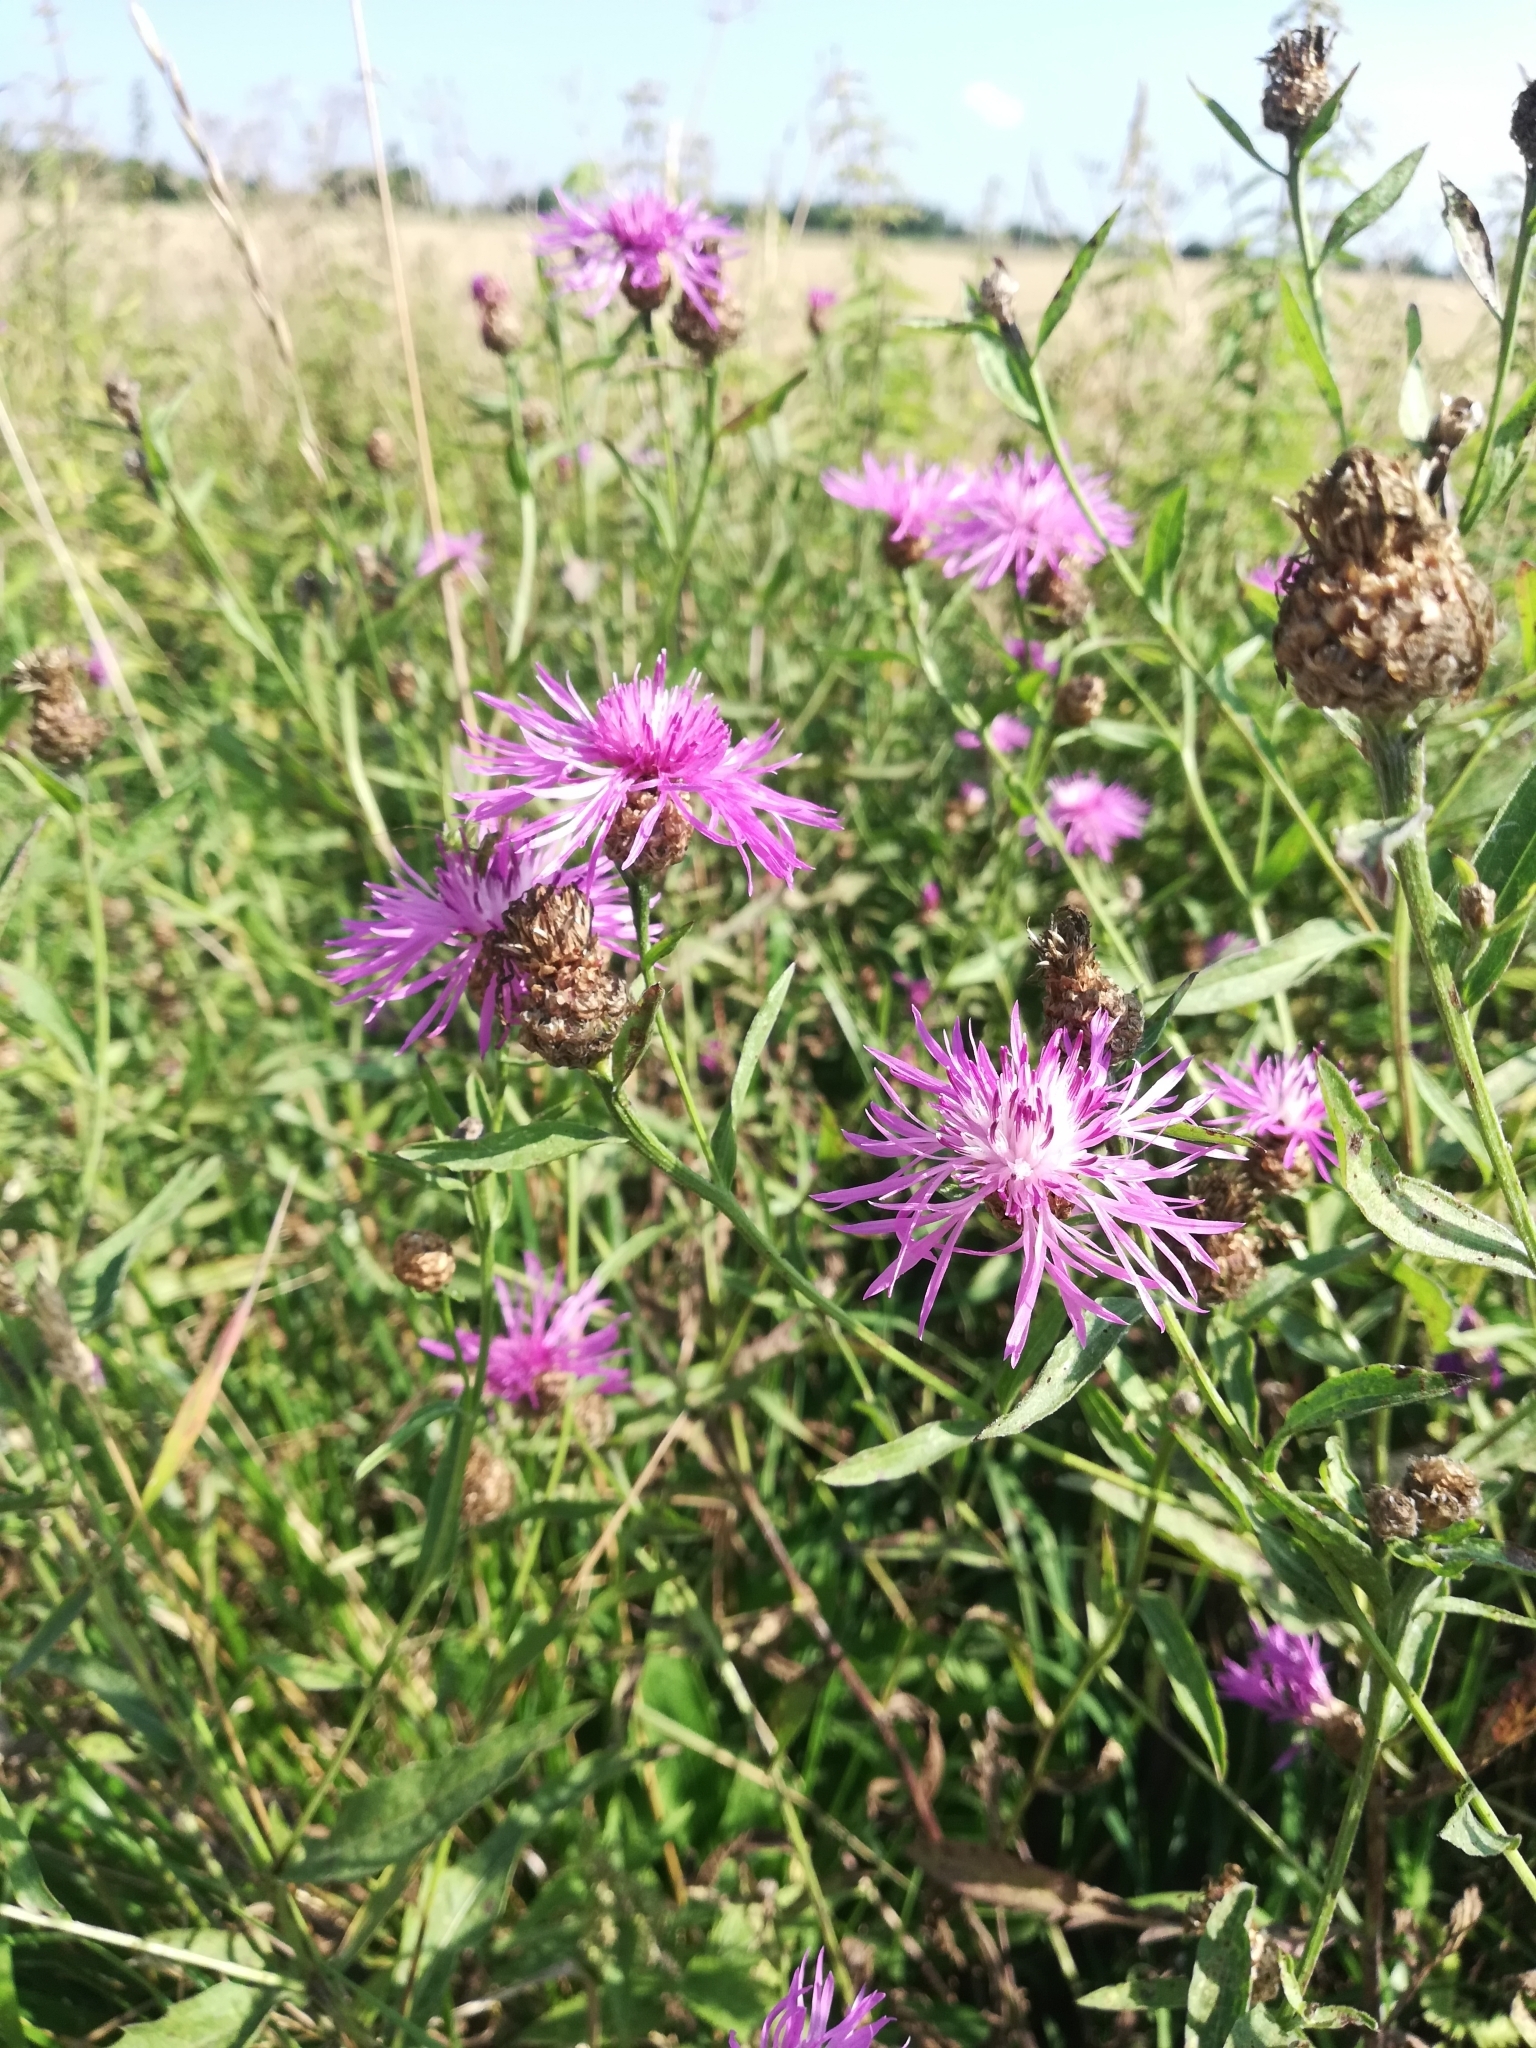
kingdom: Plantae
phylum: Tracheophyta
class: Magnoliopsida
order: Asterales
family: Asteraceae
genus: Centaurea
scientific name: Centaurea jacea
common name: Brown knapweed
